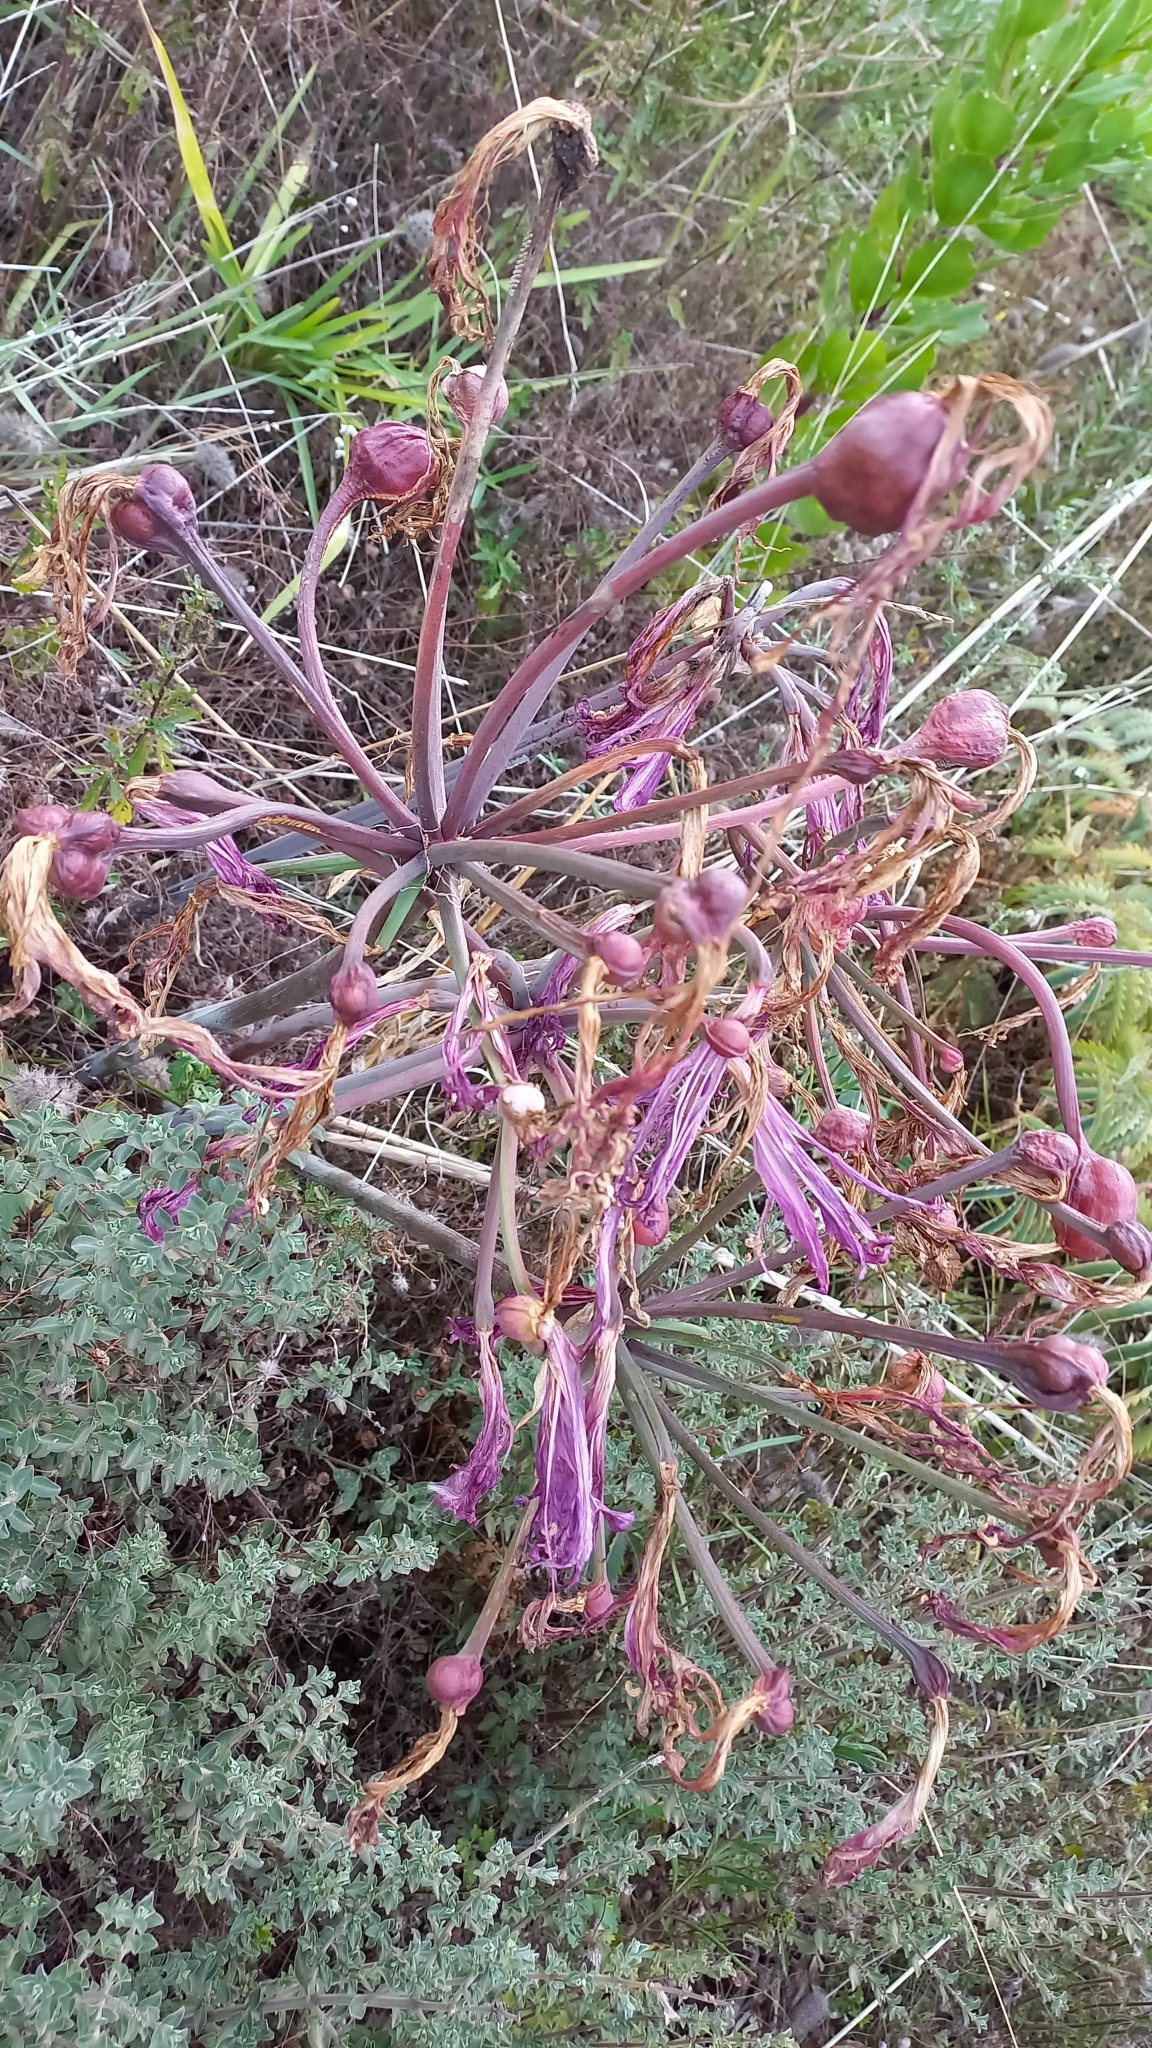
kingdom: Plantae
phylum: Tracheophyta
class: Liliopsida
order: Asparagales
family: Amaryllidaceae
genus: Amaryllis
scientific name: Amaryllis belladonna
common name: Jersey lily
